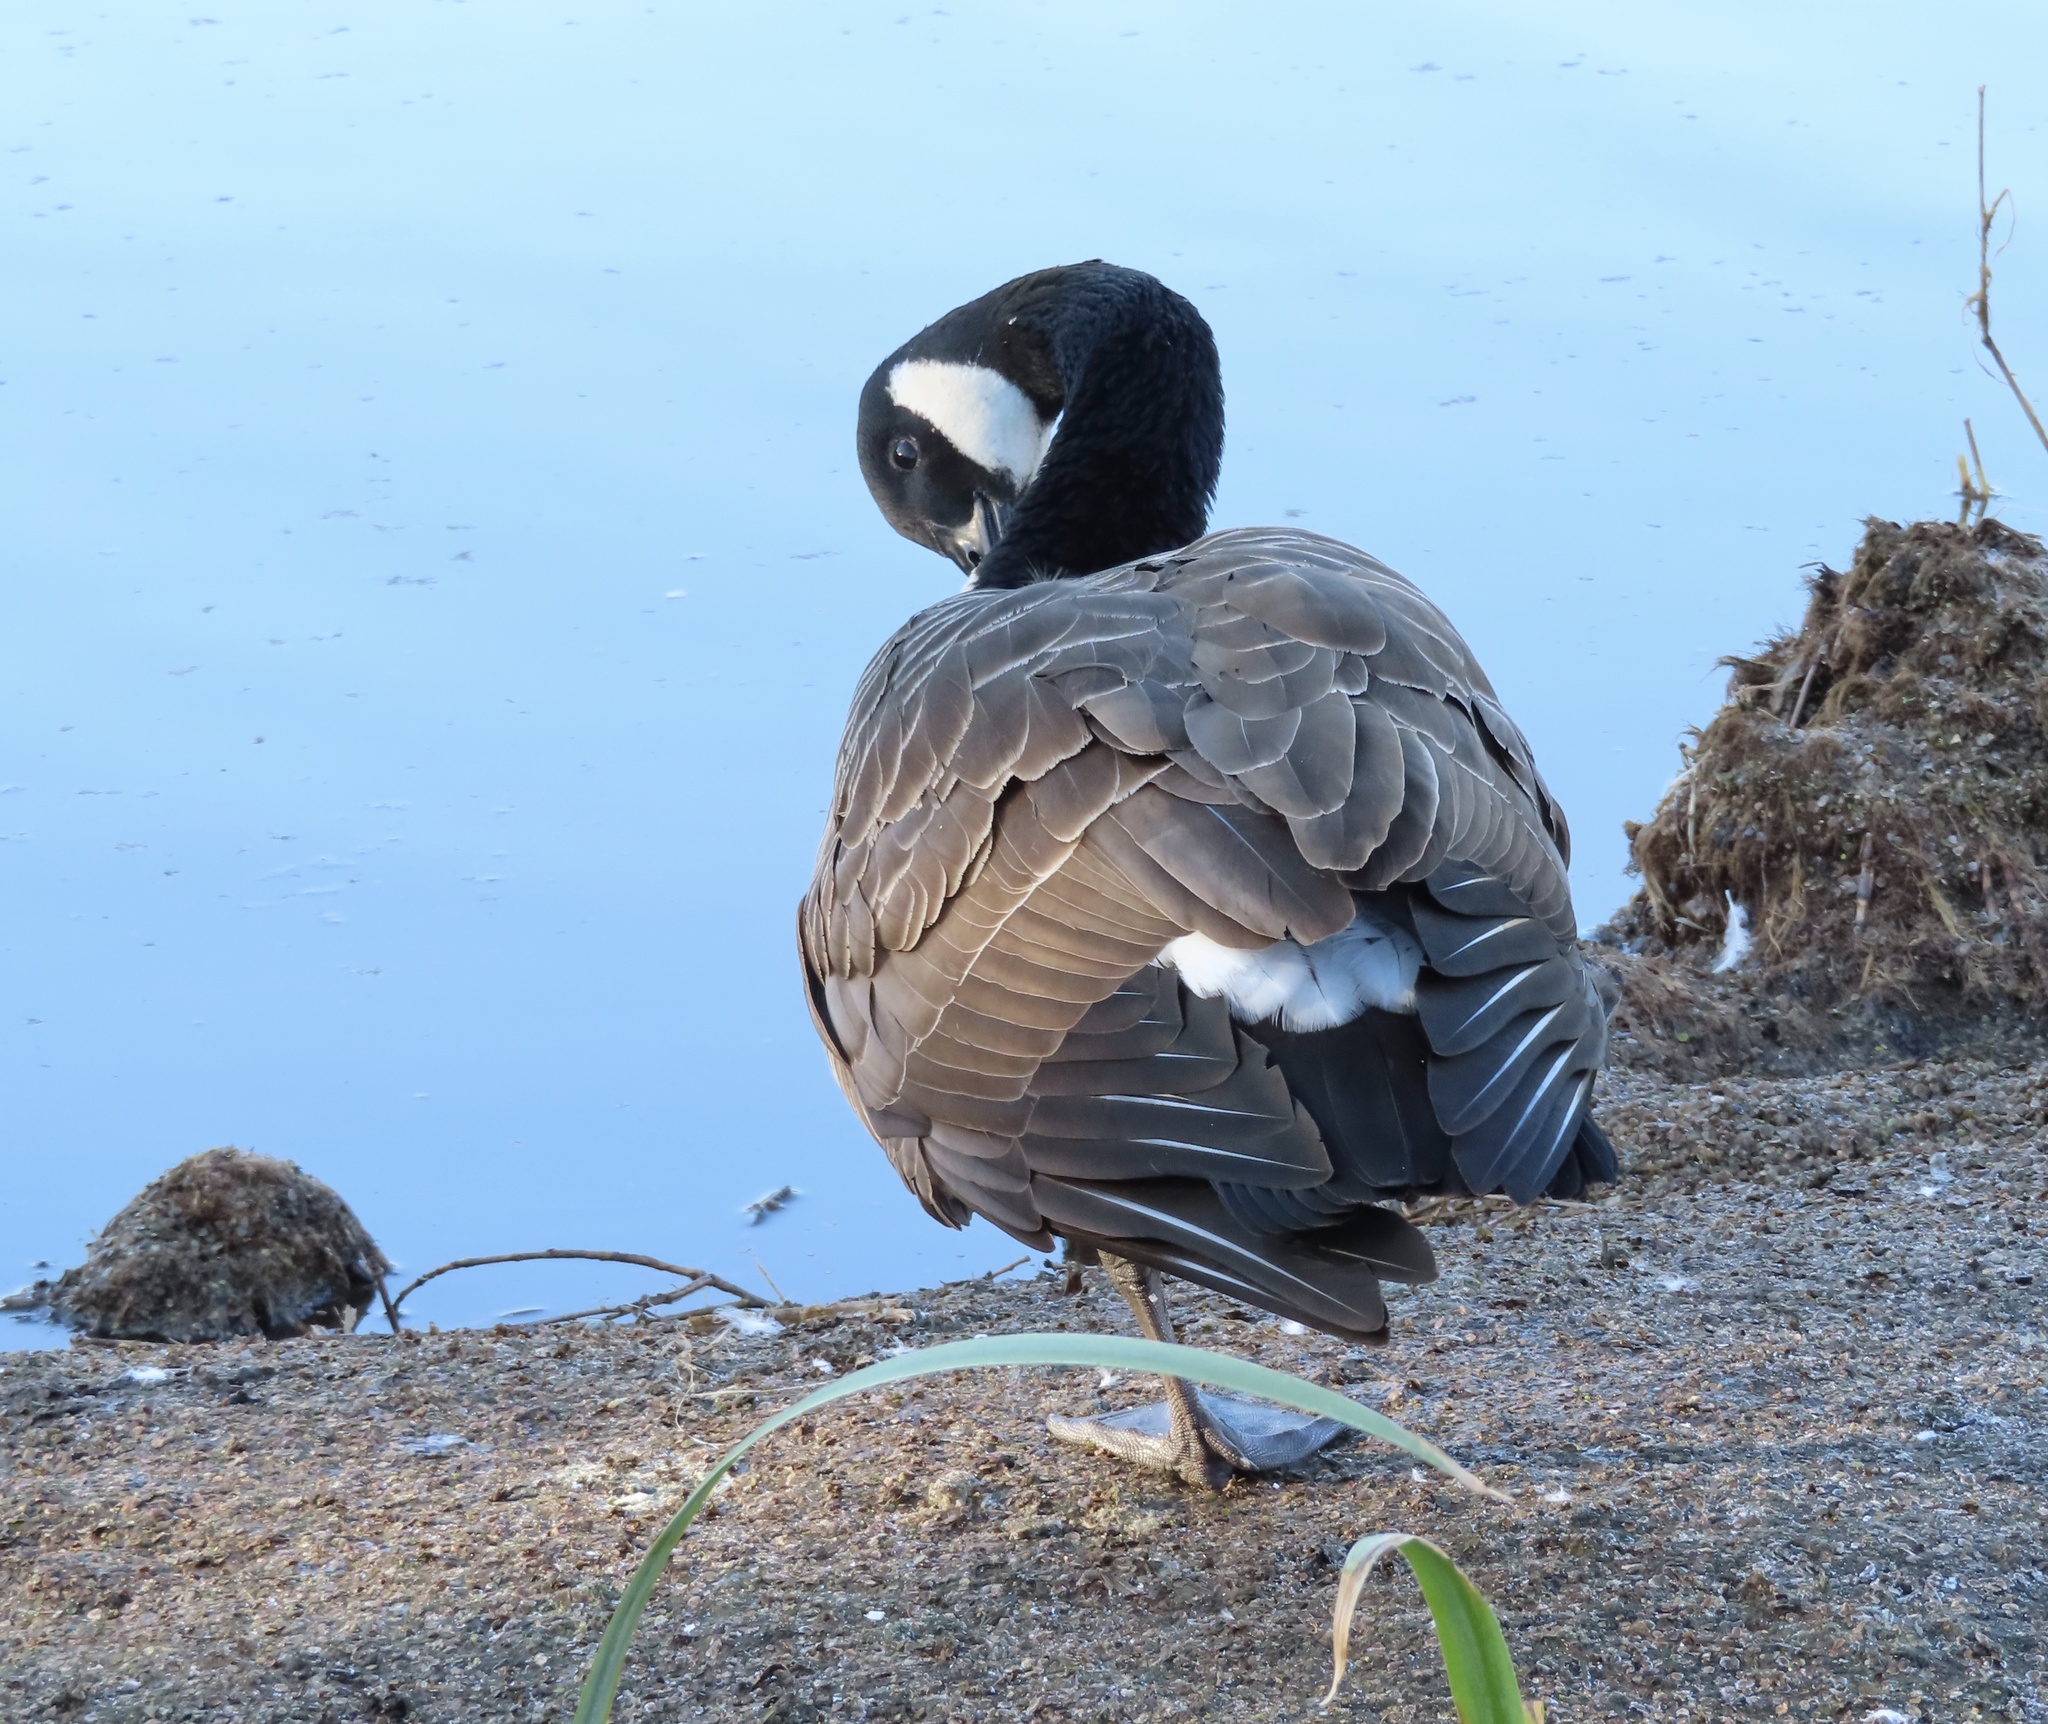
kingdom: Animalia
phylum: Chordata
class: Aves
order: Anseriformes
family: Anatidae
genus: Branta
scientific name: Branta canadensis
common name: Canada goose
